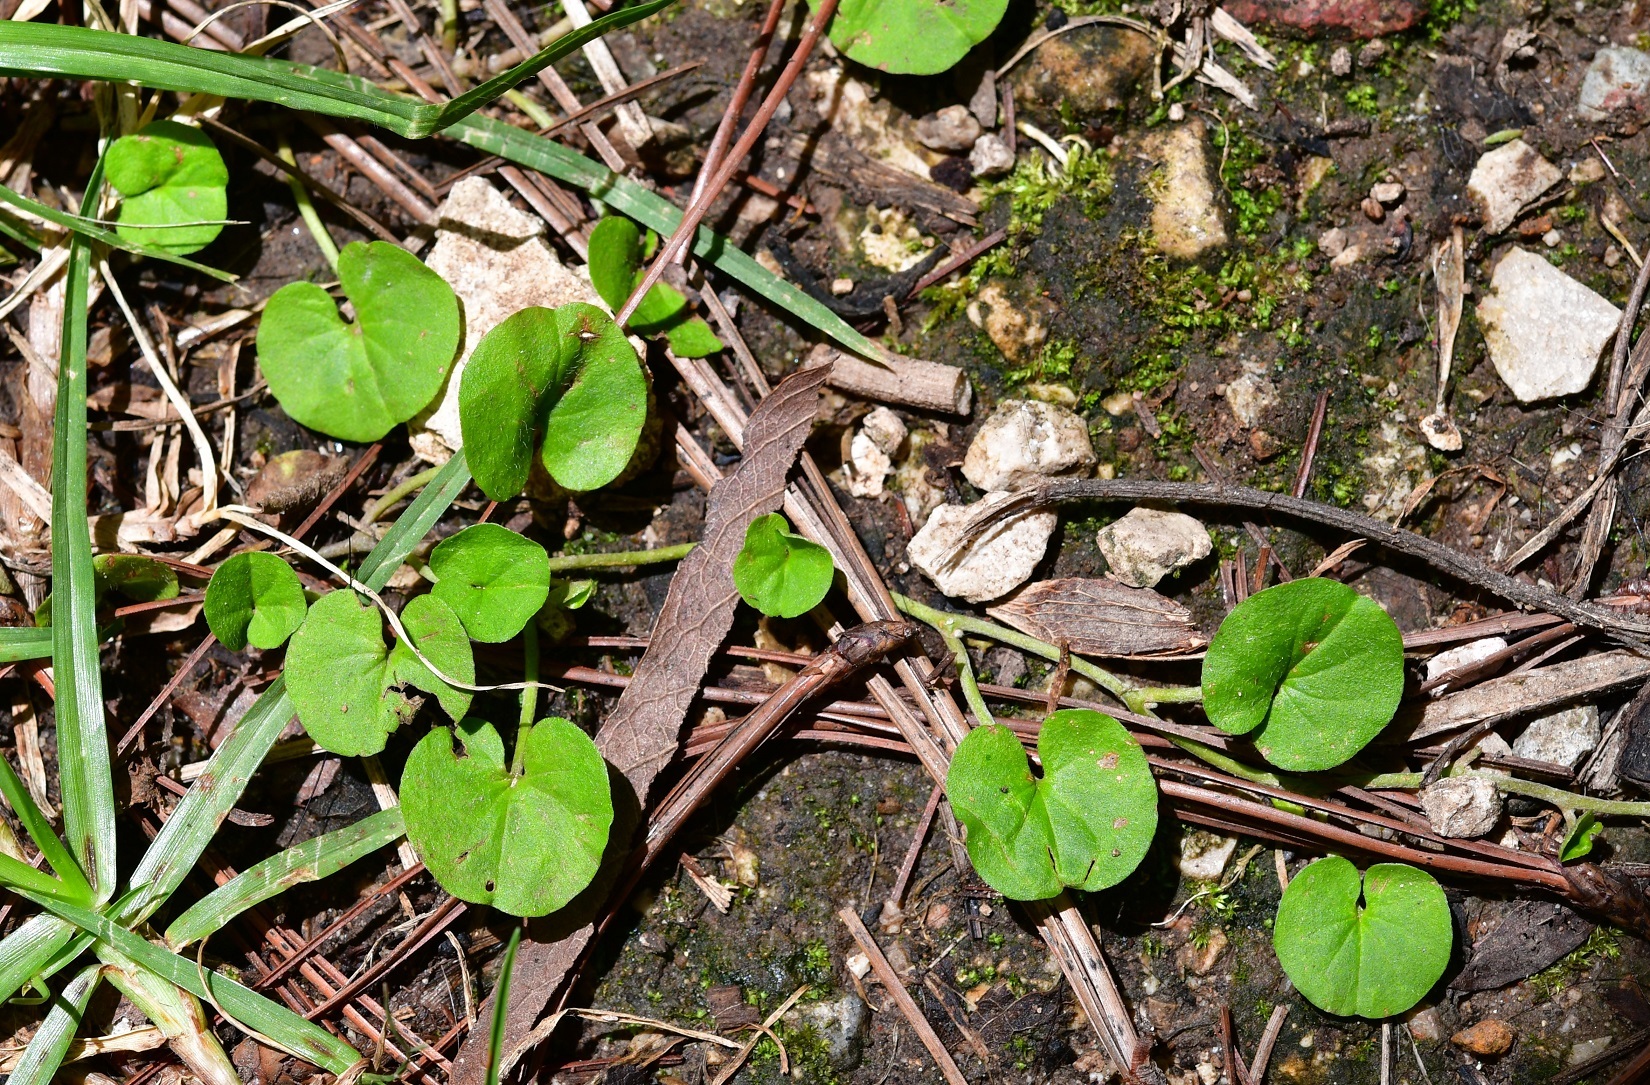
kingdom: Plantae
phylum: Tracheophyta
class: Magnoliopsida
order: Solanales
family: Convolvulaceae
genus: Dichondra
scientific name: Dichondra sericea
